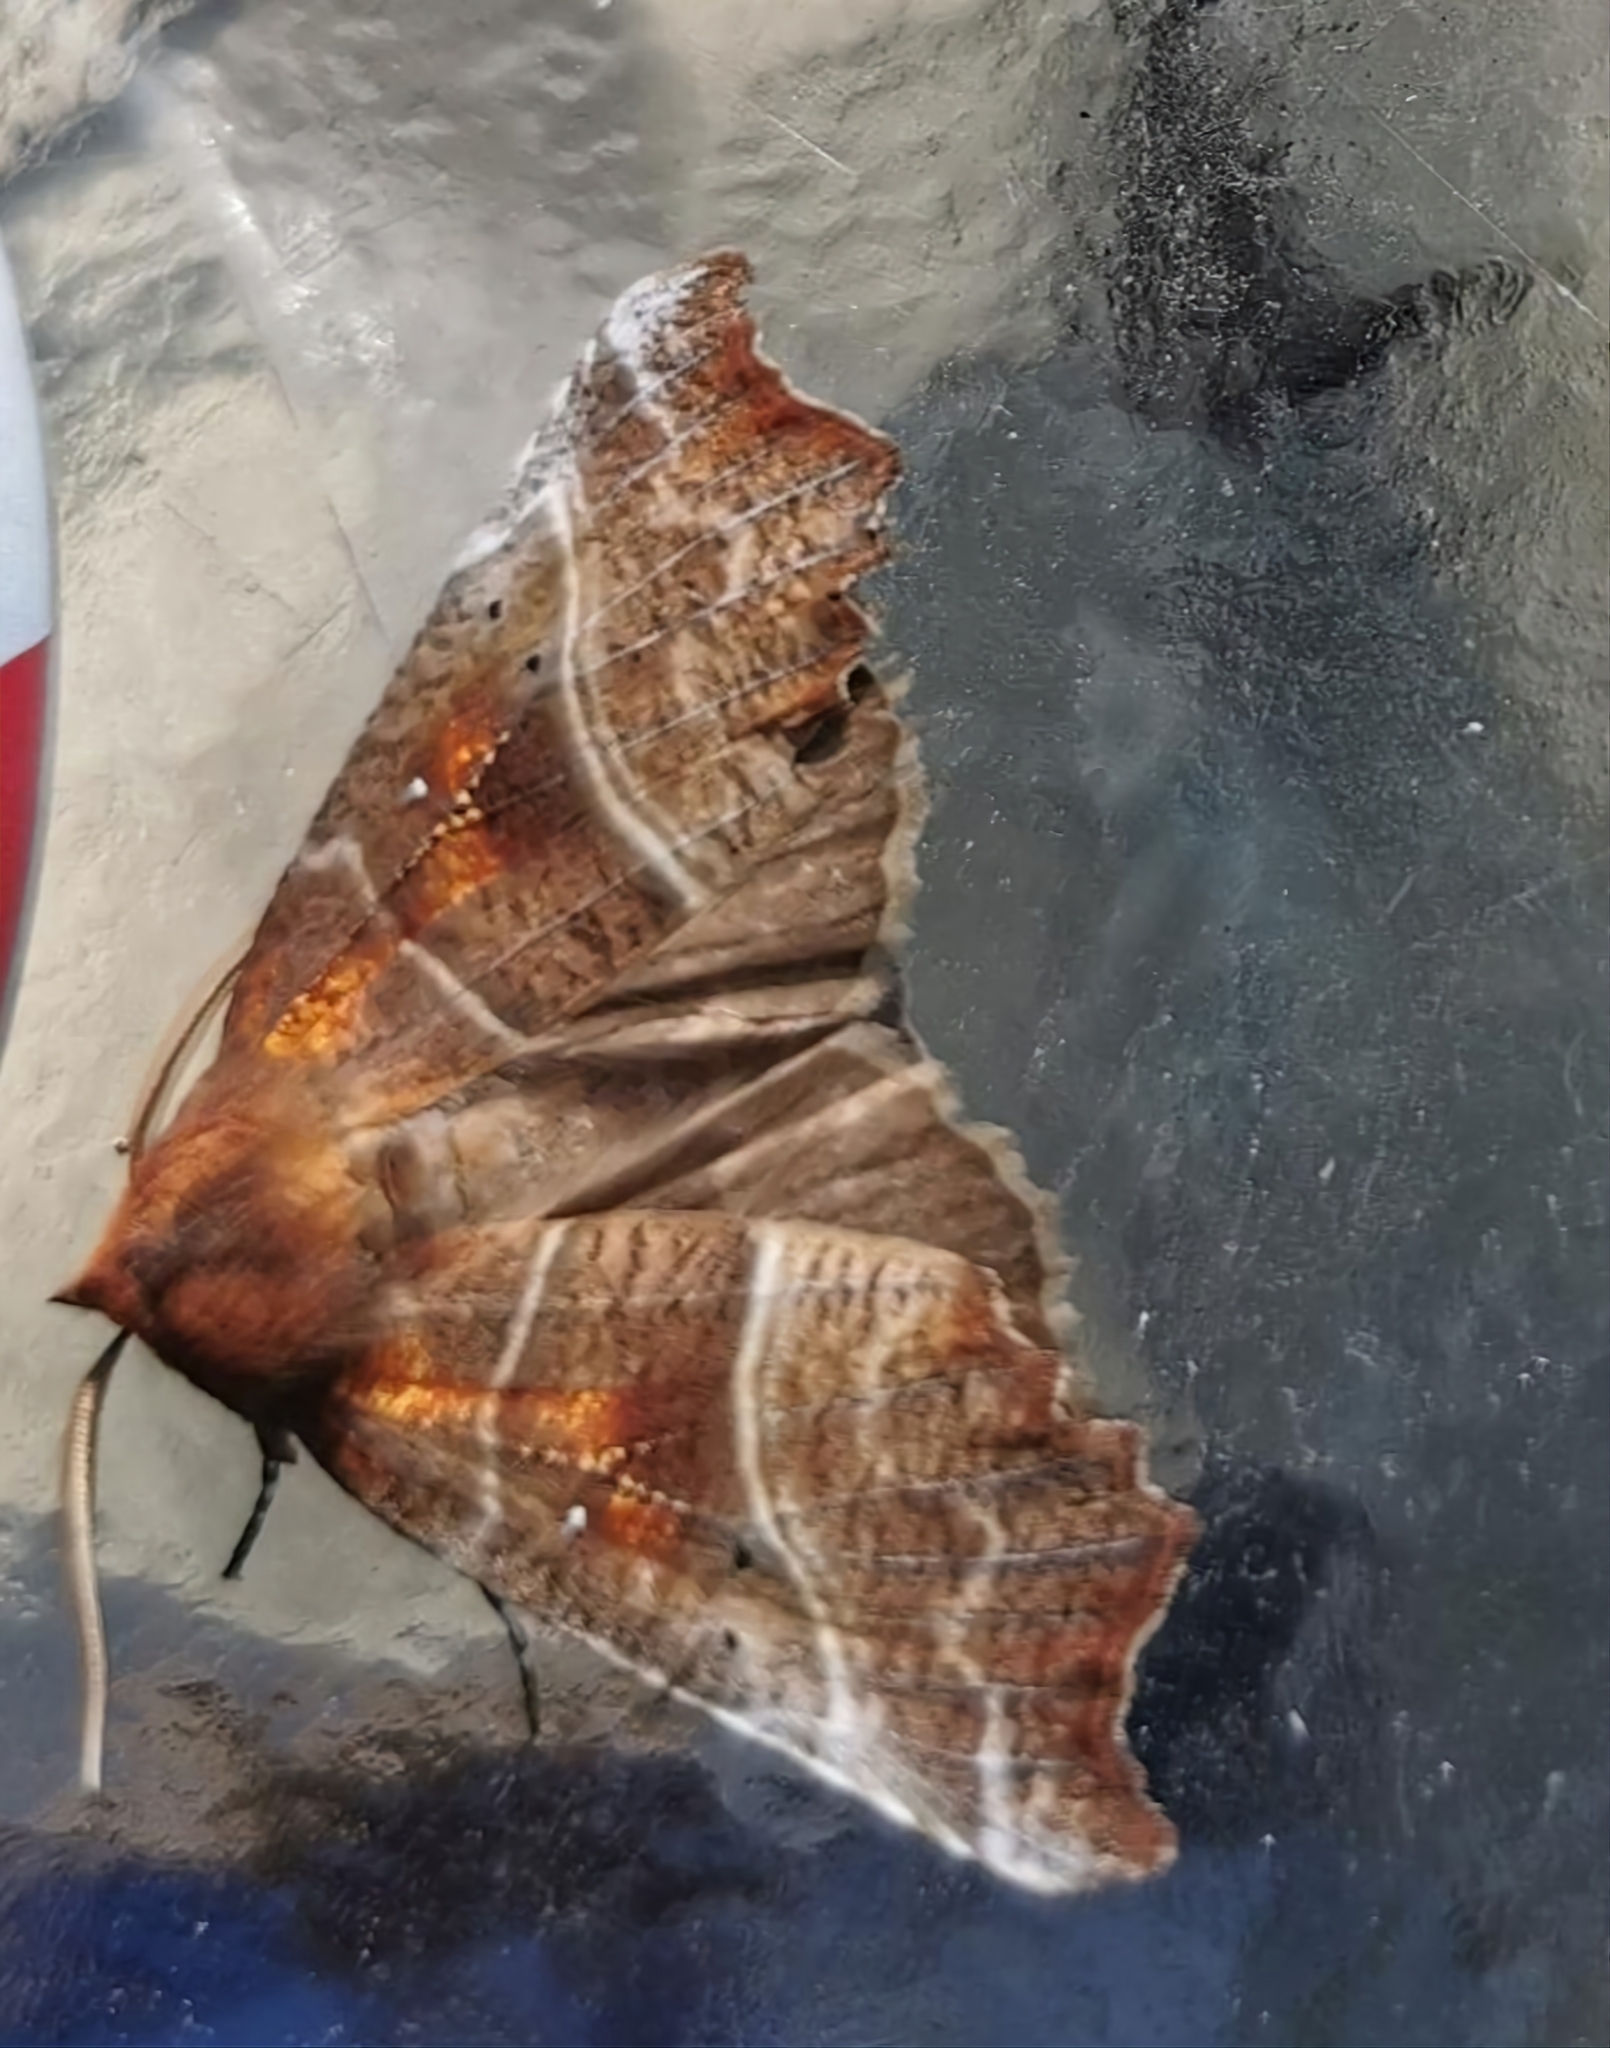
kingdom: Animalia
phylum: Arthropoda
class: Insecta
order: Lepidoptera
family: Erebidae
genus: Scoliopteryx
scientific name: Scoliopteryx libatrix
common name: Herald
